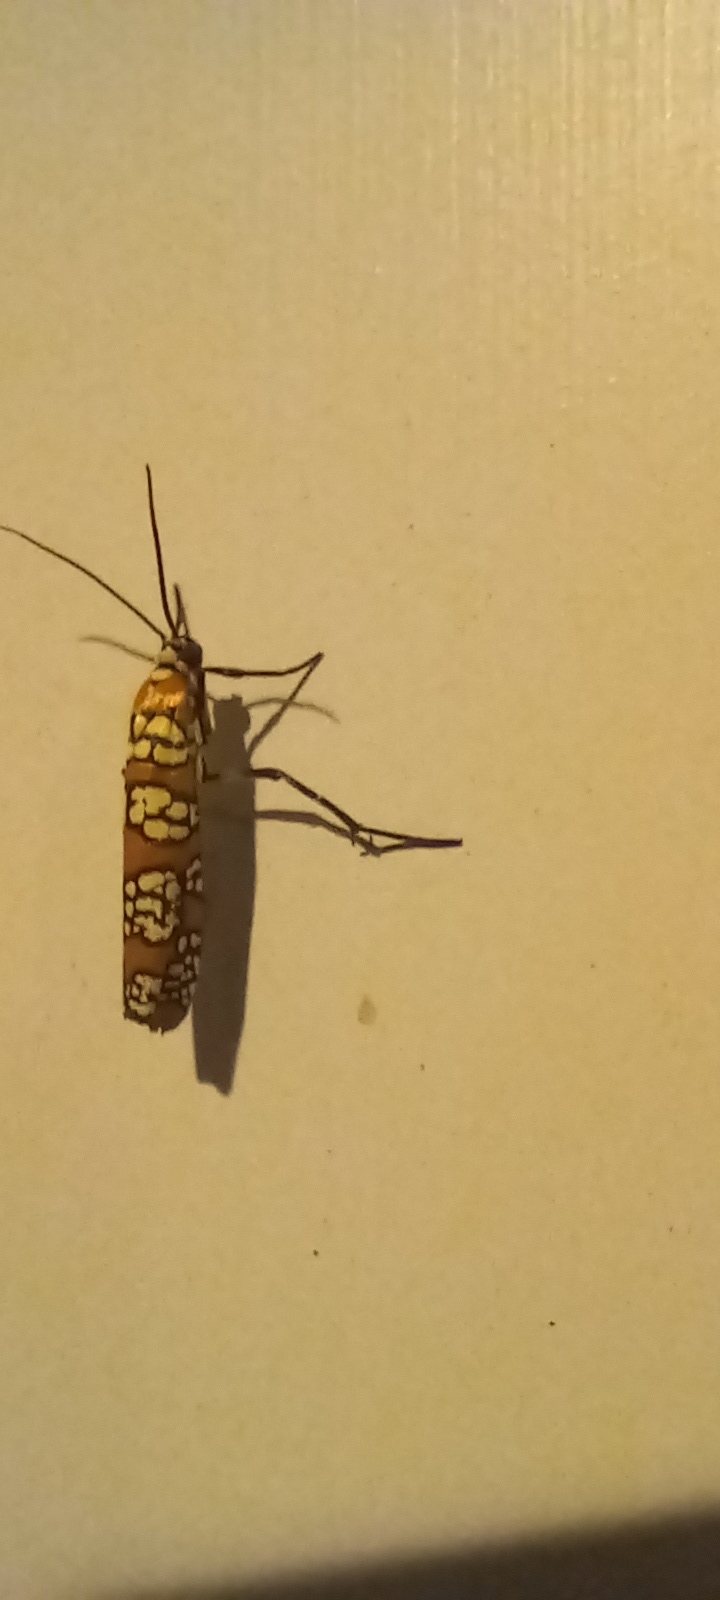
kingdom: Animalia
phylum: Arthropoda
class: Insecta
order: Lepidoptera
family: Attevidae
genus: Atteva
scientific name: Atteva punctella
